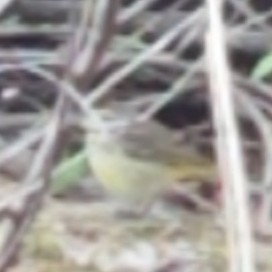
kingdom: Animalia
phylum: Chordata
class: Aves
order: Passeriformes
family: Parulidae
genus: Setophaga
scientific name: Setophaga palmarum
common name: Palm warbler
